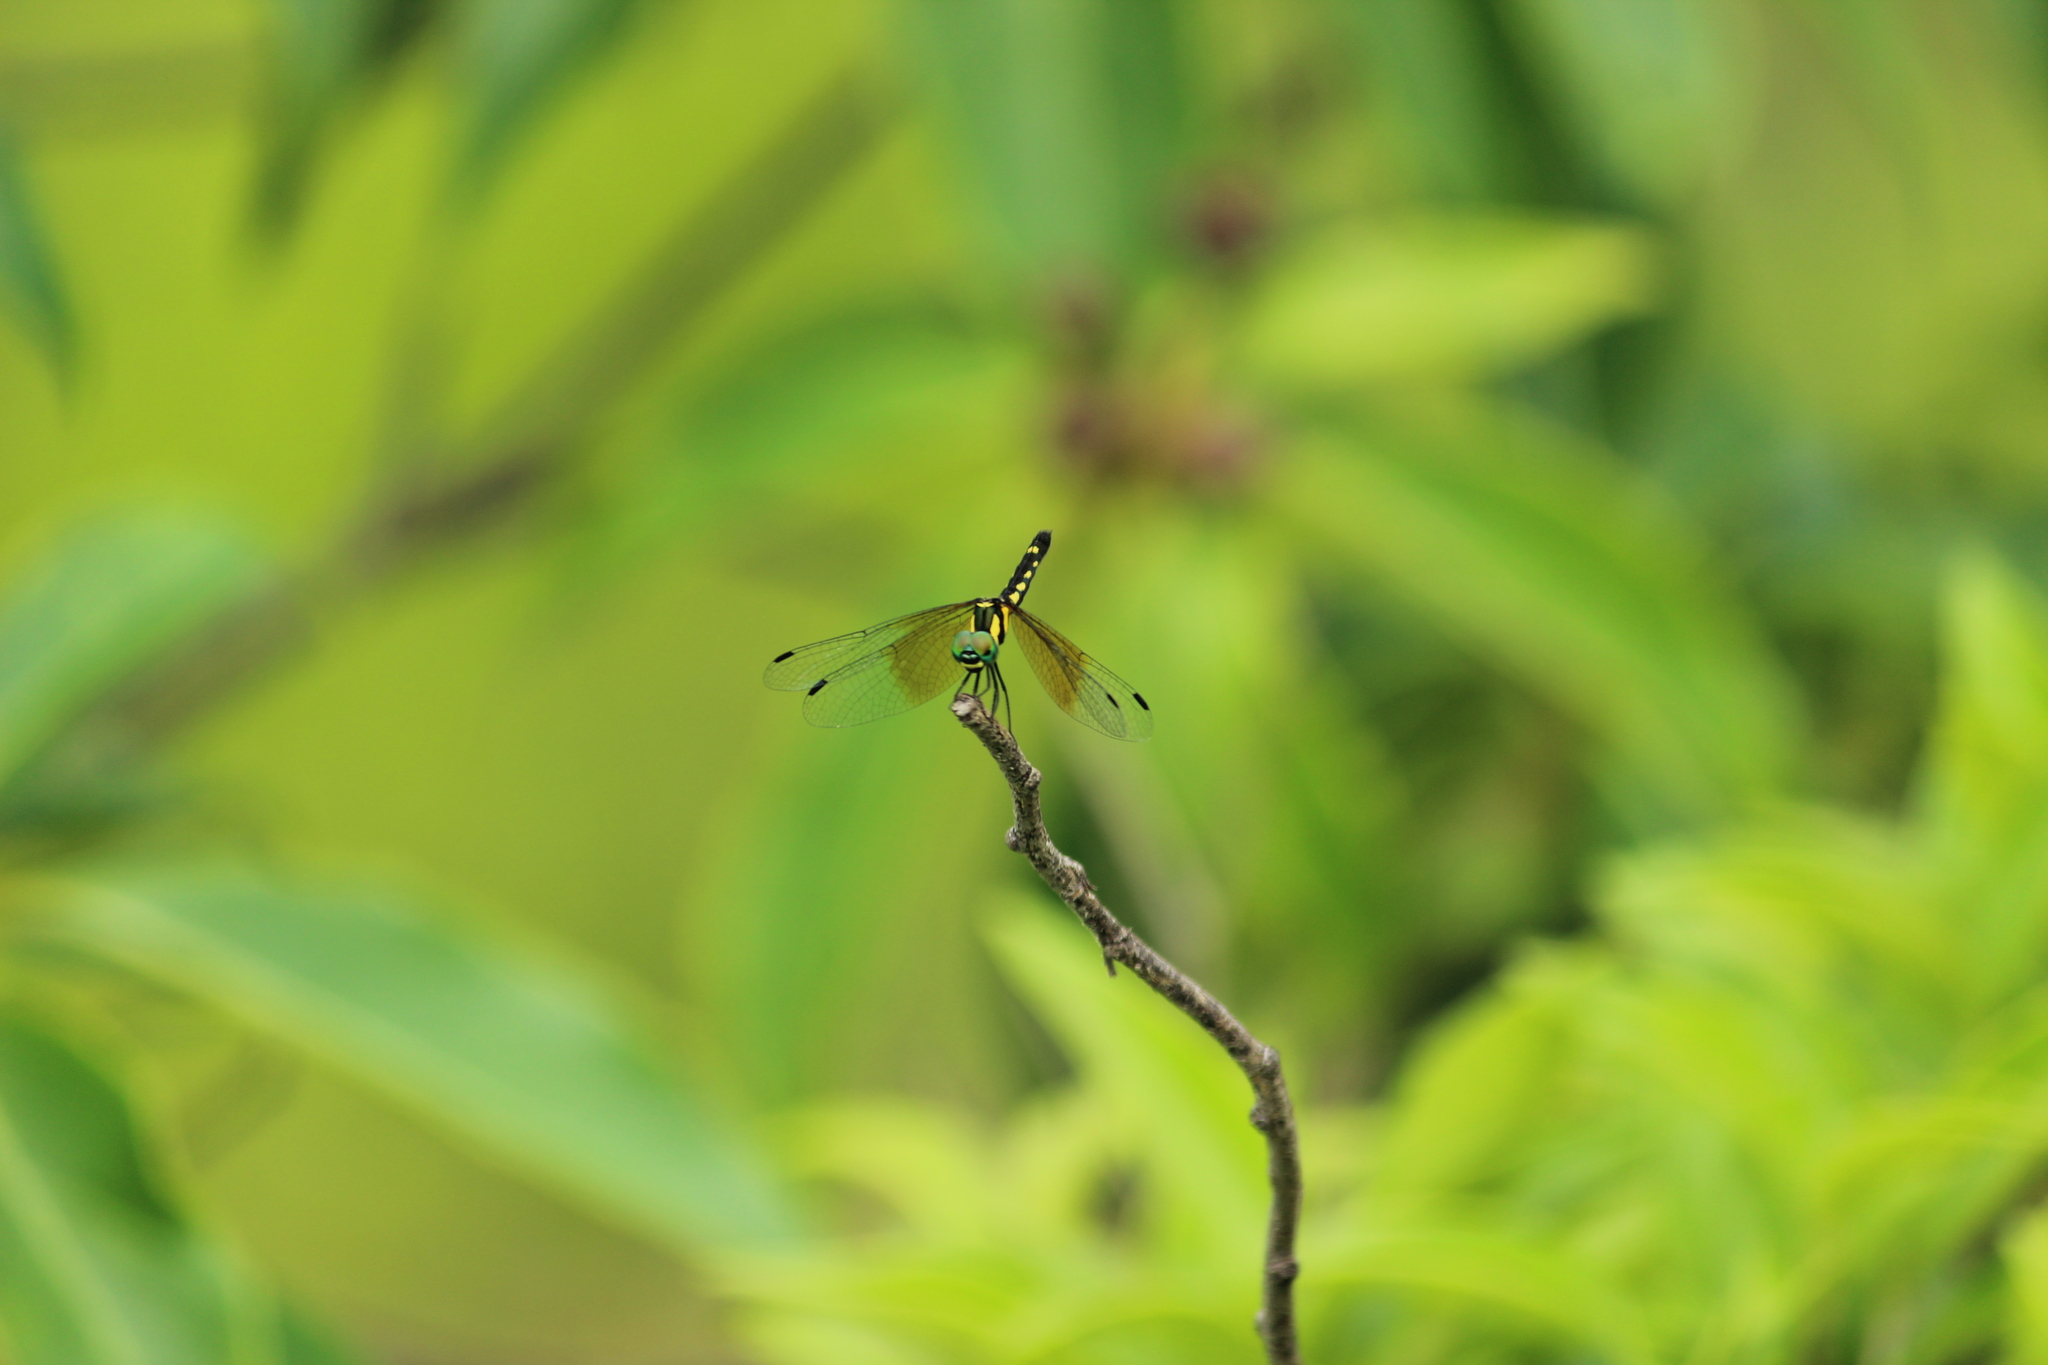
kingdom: Animalia
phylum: Arthropoda
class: Insecta
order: Odonata
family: Libellulidae
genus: Tetrathemis
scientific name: Tetrathemis platyptera
